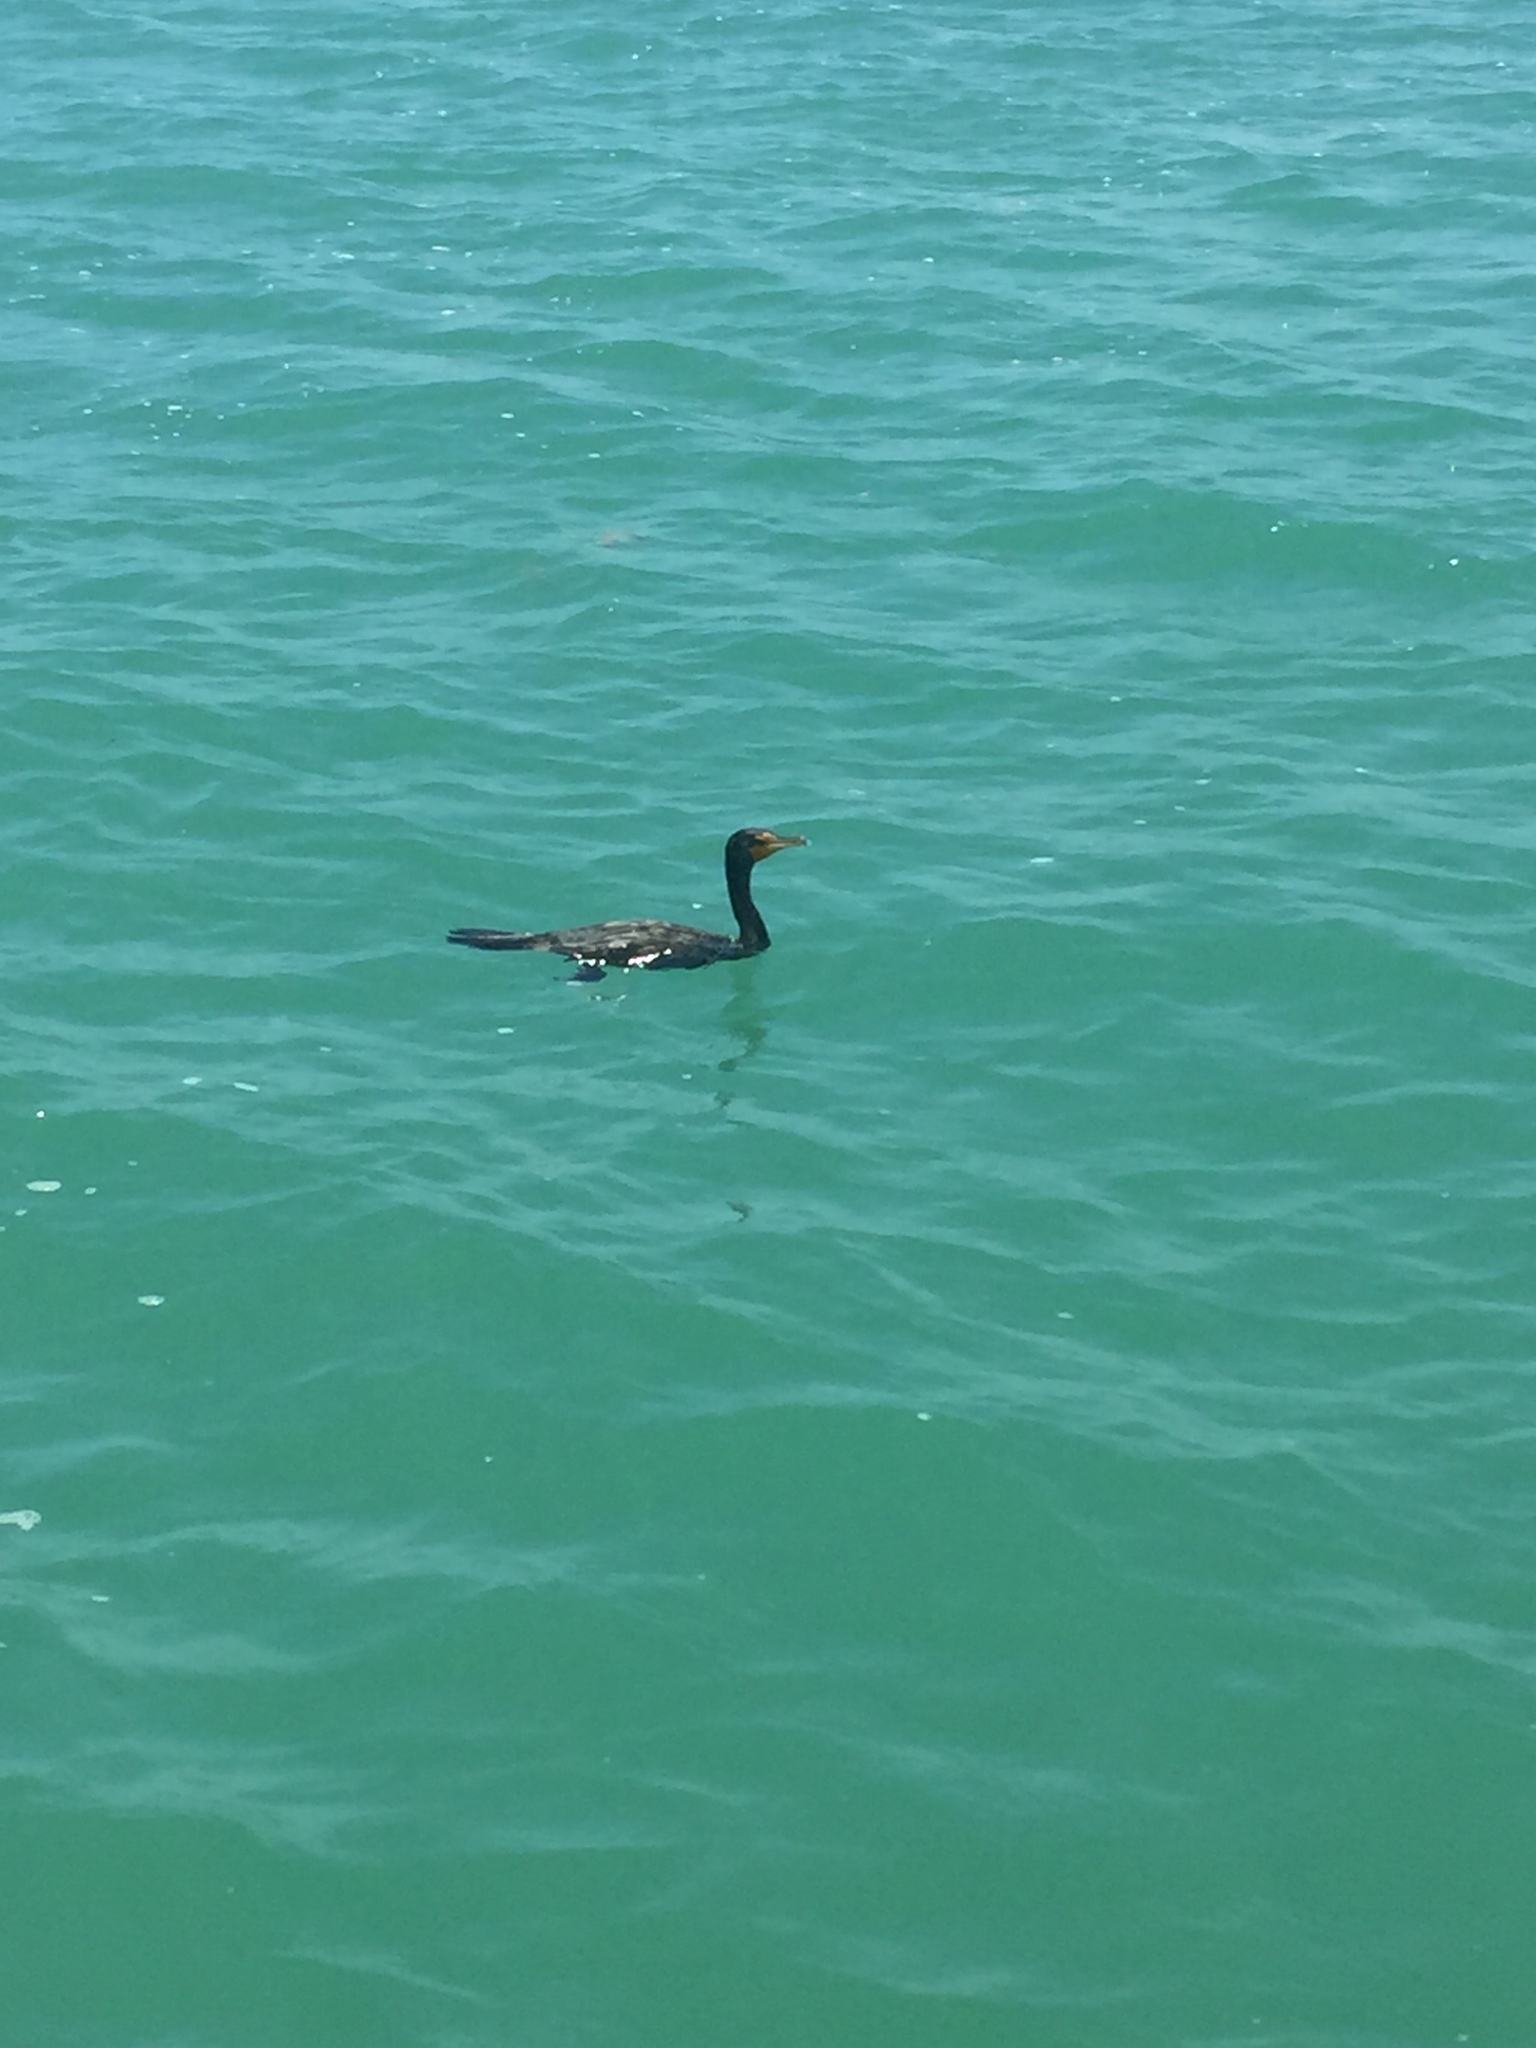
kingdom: Animalia
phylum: Chordata
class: Aves
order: Suliformes
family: Phalacrocoracidae
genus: Phalacrocorax
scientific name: Phalacrocorax auritus
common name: Double-crested cormorant
